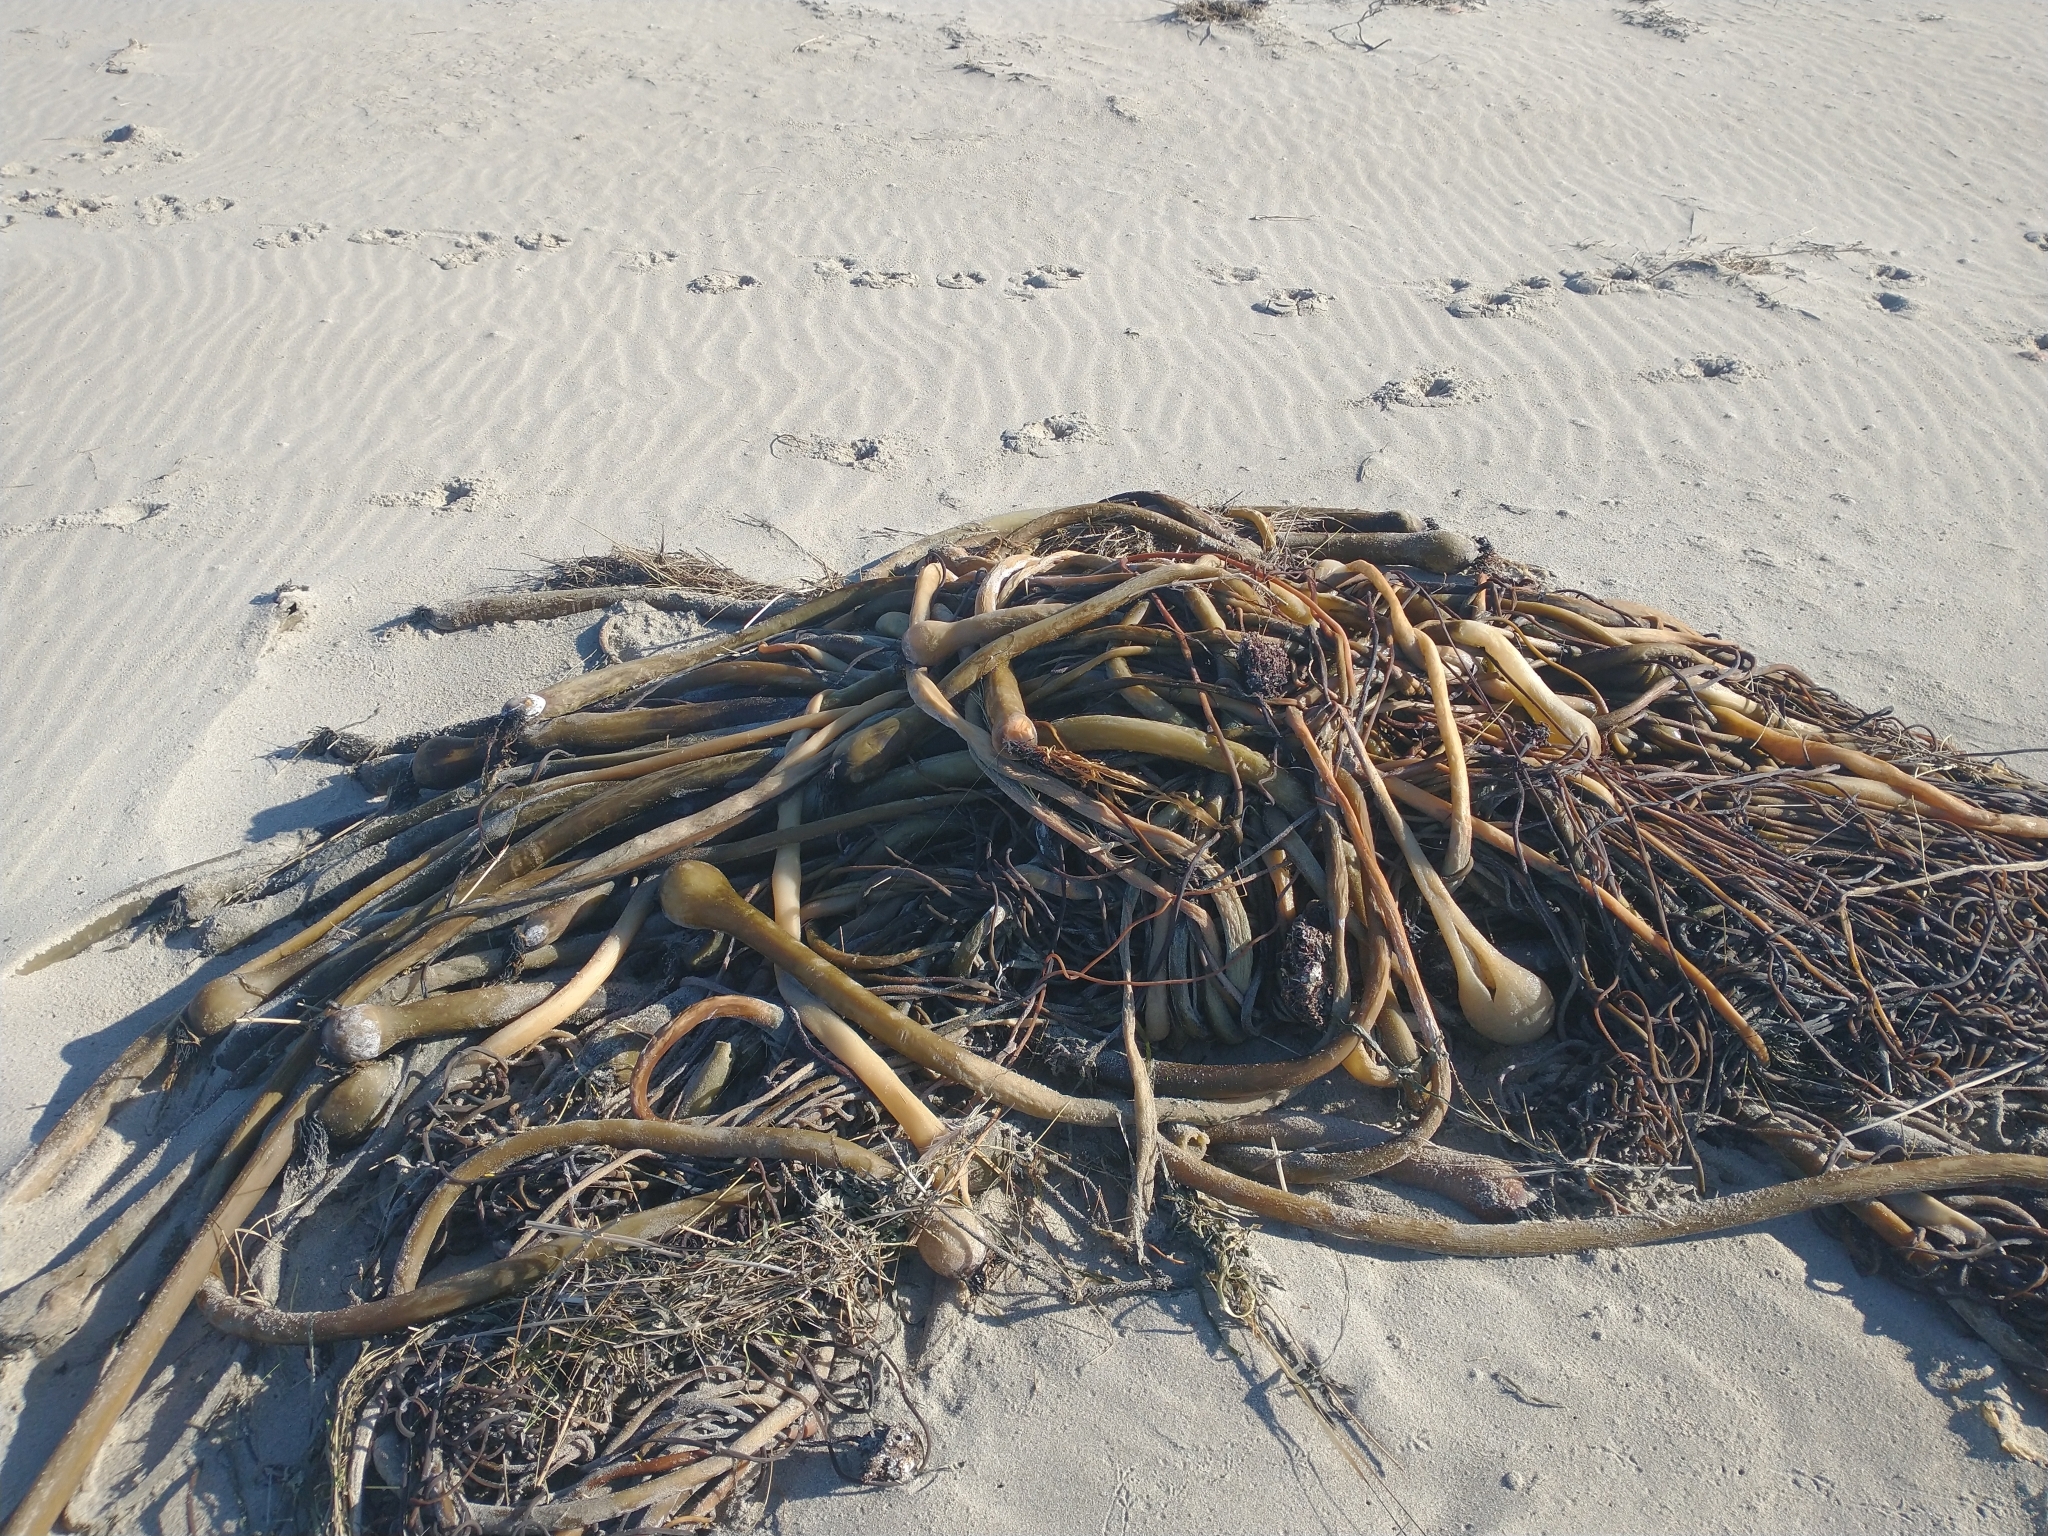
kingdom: Chromista
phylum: Ochrophyta
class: Phaeophyceae
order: Laminariales
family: Laminariaceae
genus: Nereocystis
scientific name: Nereocystis luetkeana
